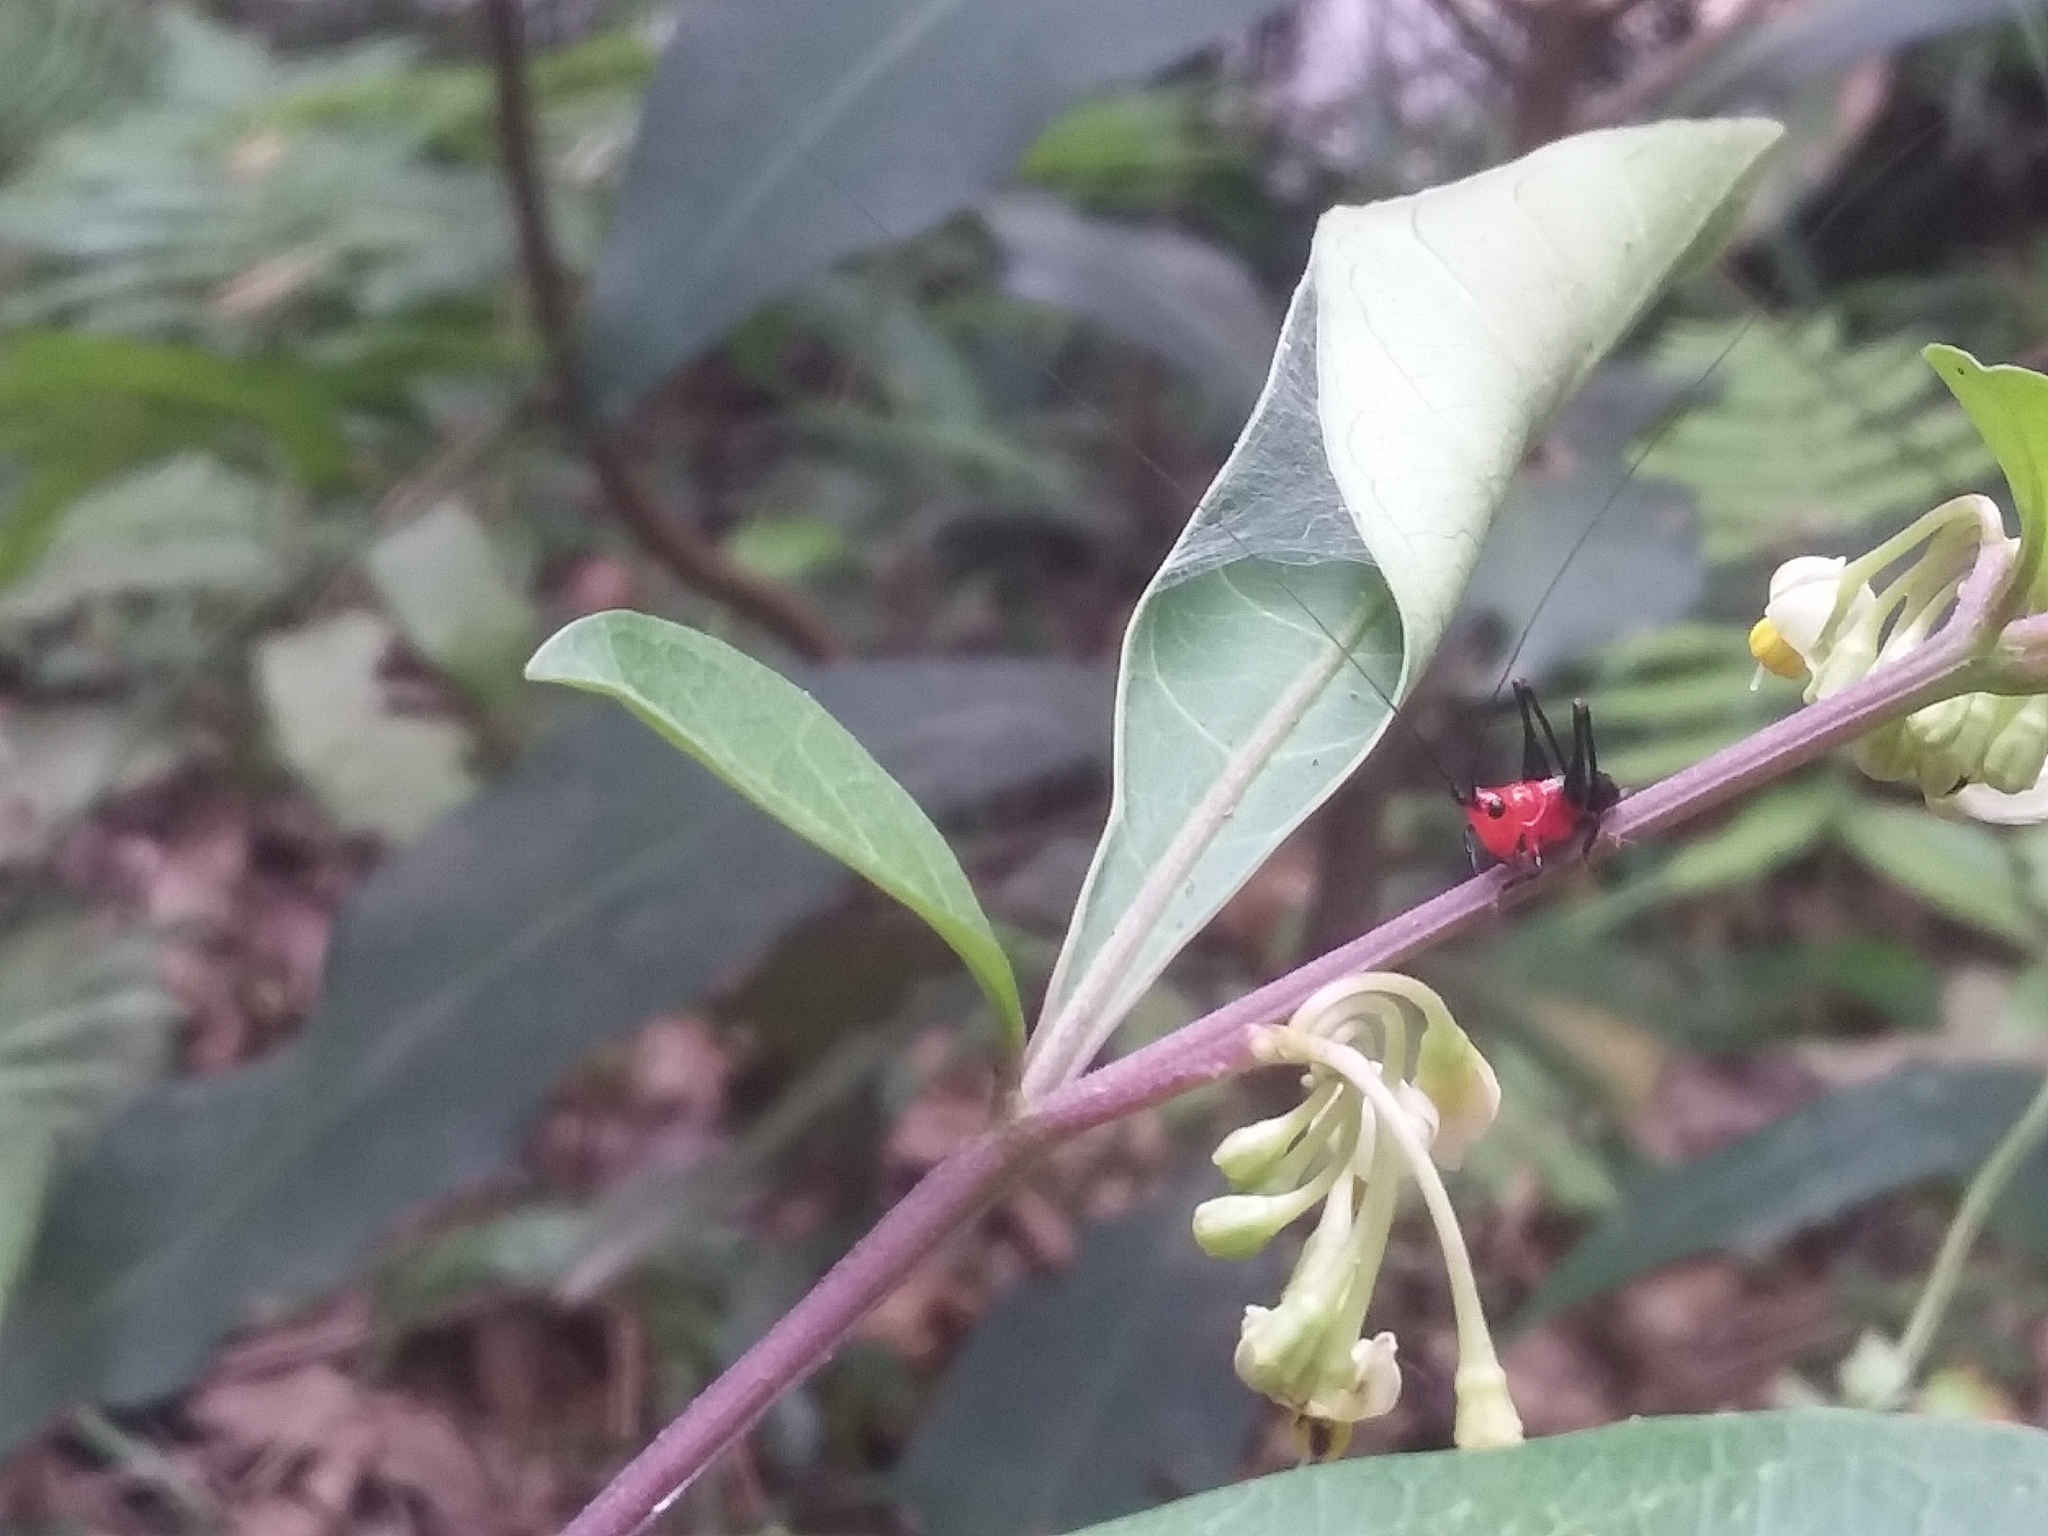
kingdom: Animalia
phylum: Arthropoda
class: Insecta
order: Orthoptera
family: Tettigoniidae
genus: Conocephalus
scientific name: Conocephalus melaenus
